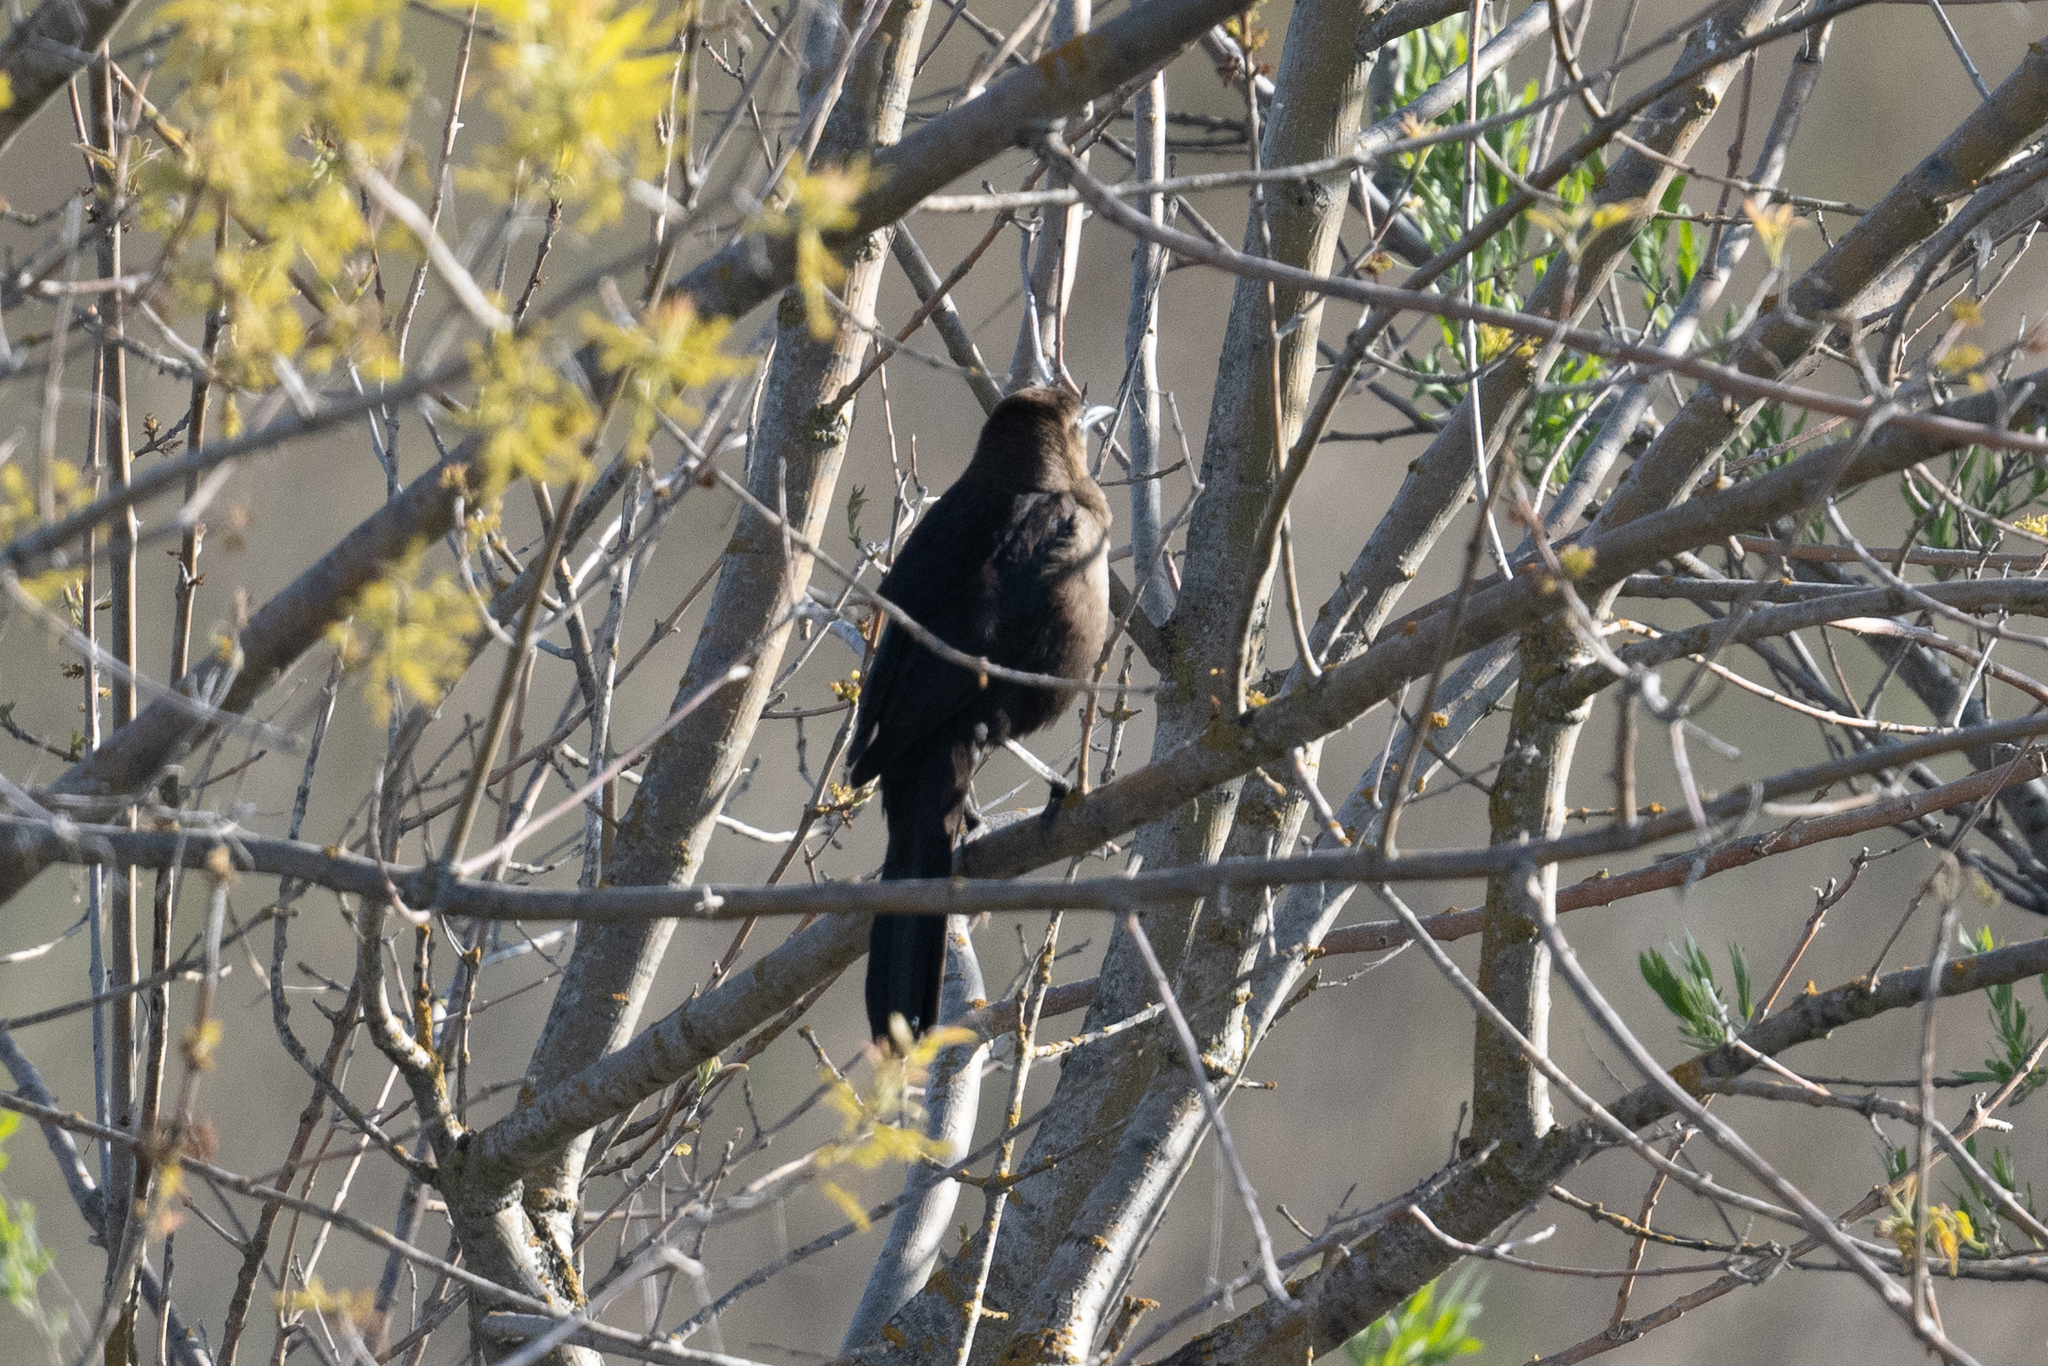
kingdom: Animalia
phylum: Chordata
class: Aves
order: Passeriformes
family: Icteridae
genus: Quiscalus
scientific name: Quiscalus mexicanus
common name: Great-tailed grackle
